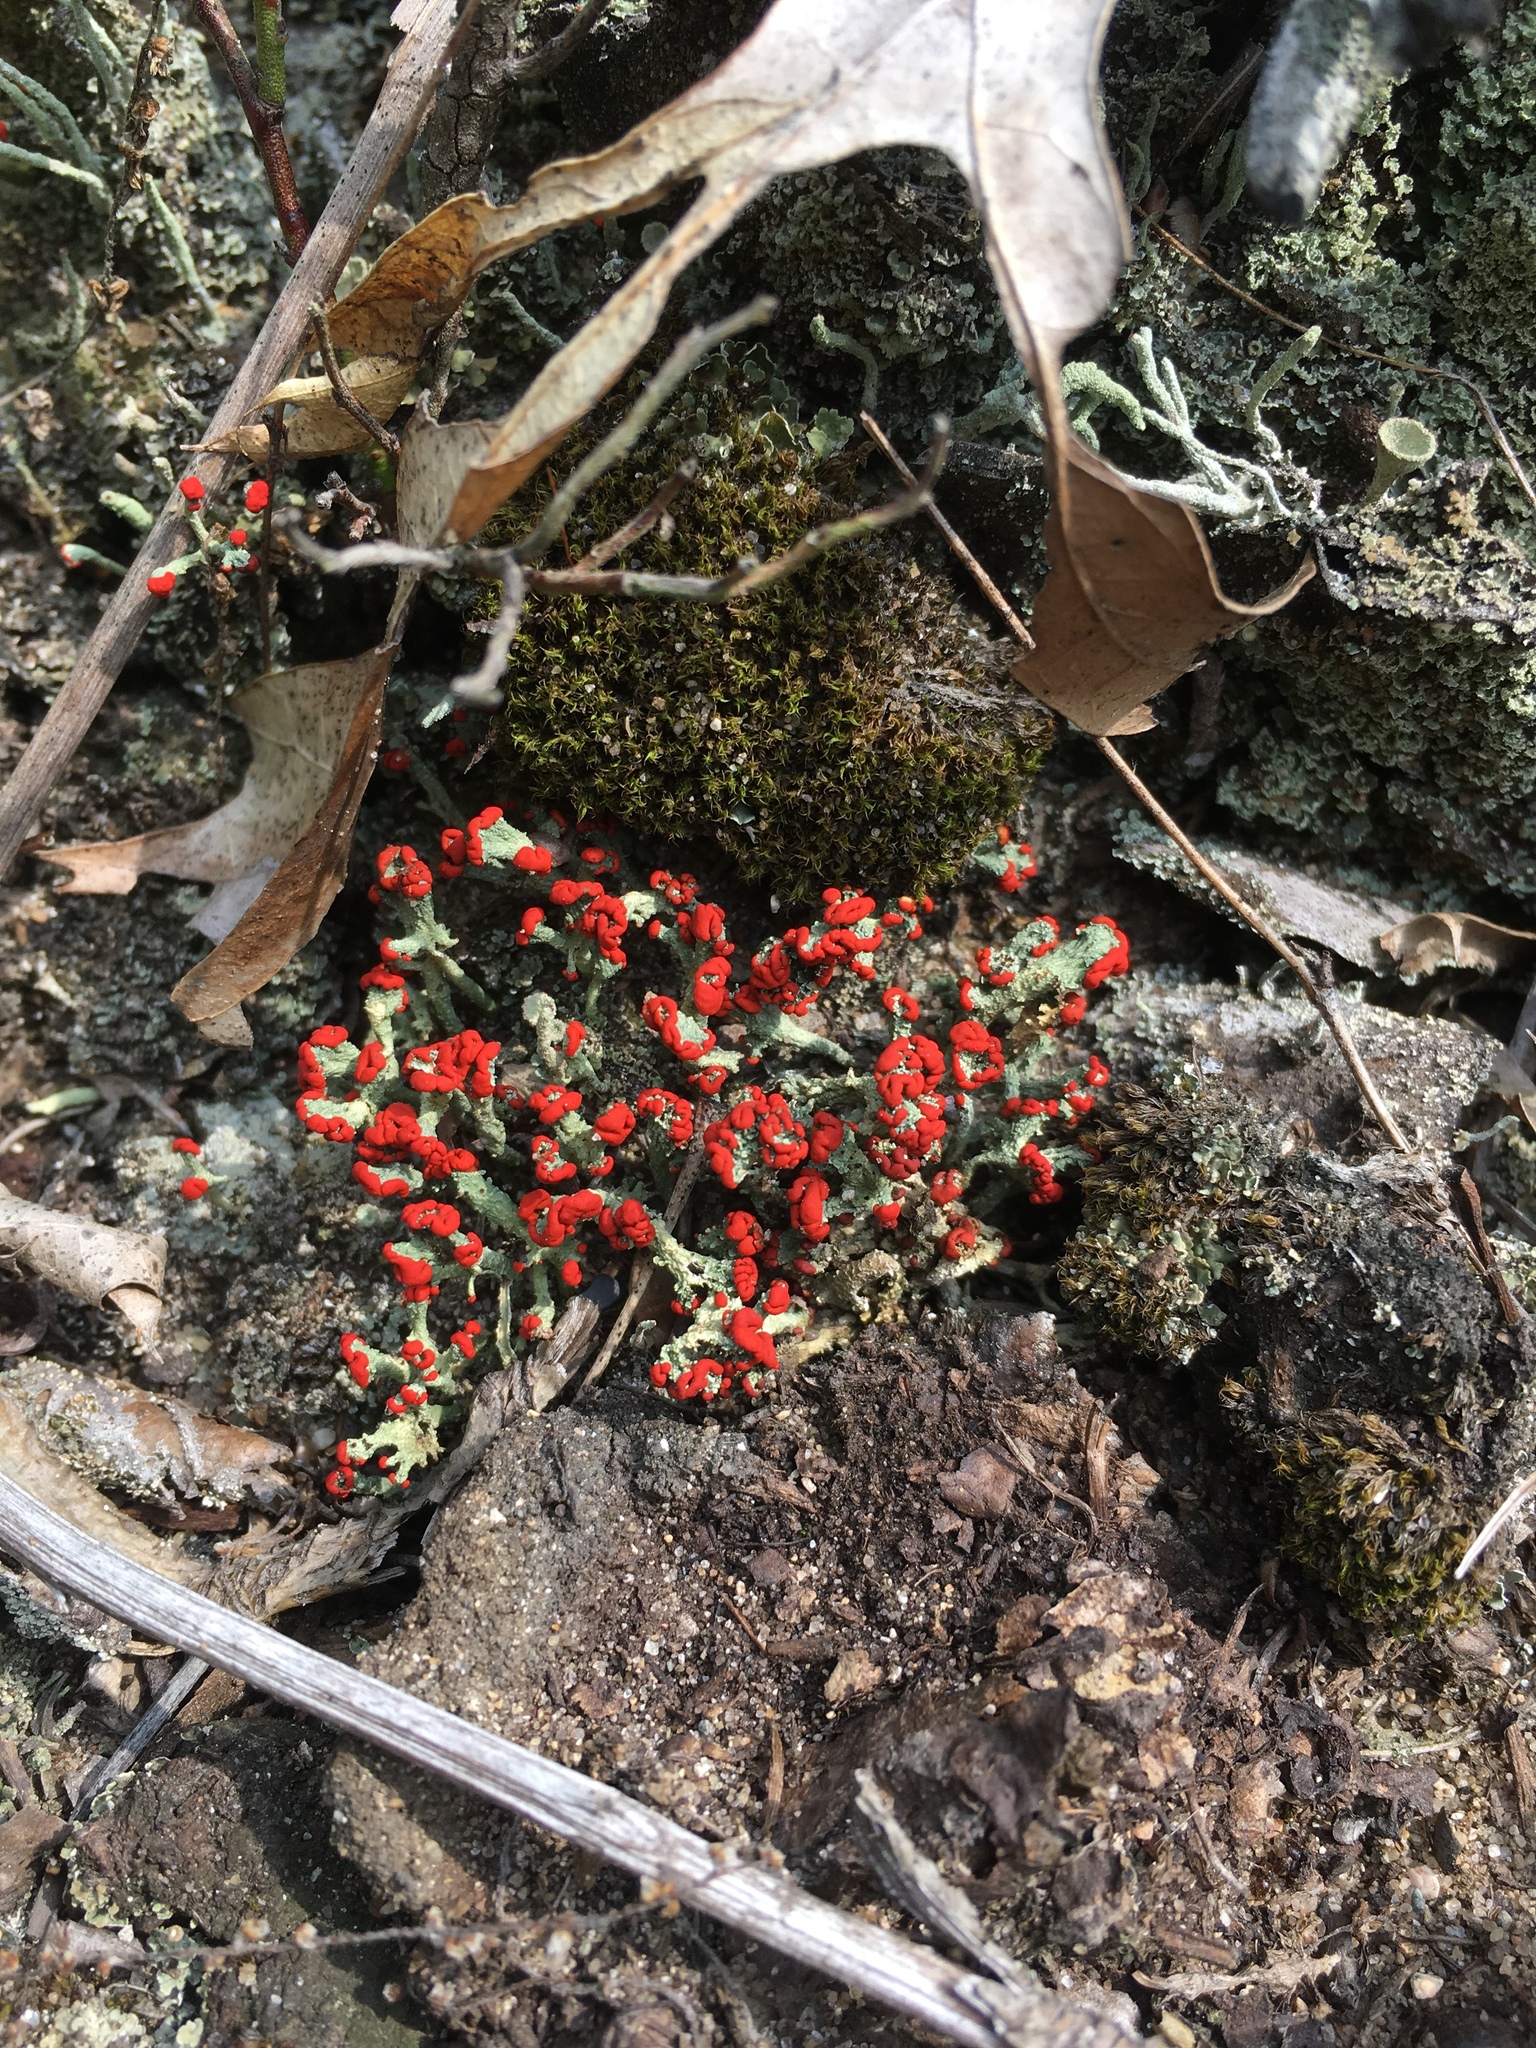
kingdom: Fungi
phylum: Ascomycota
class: Lecanoromycetes
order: Lecanorales
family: Cladoniaceae
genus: Cladonia
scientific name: Cladonia cristatella
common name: British soldier lichen
